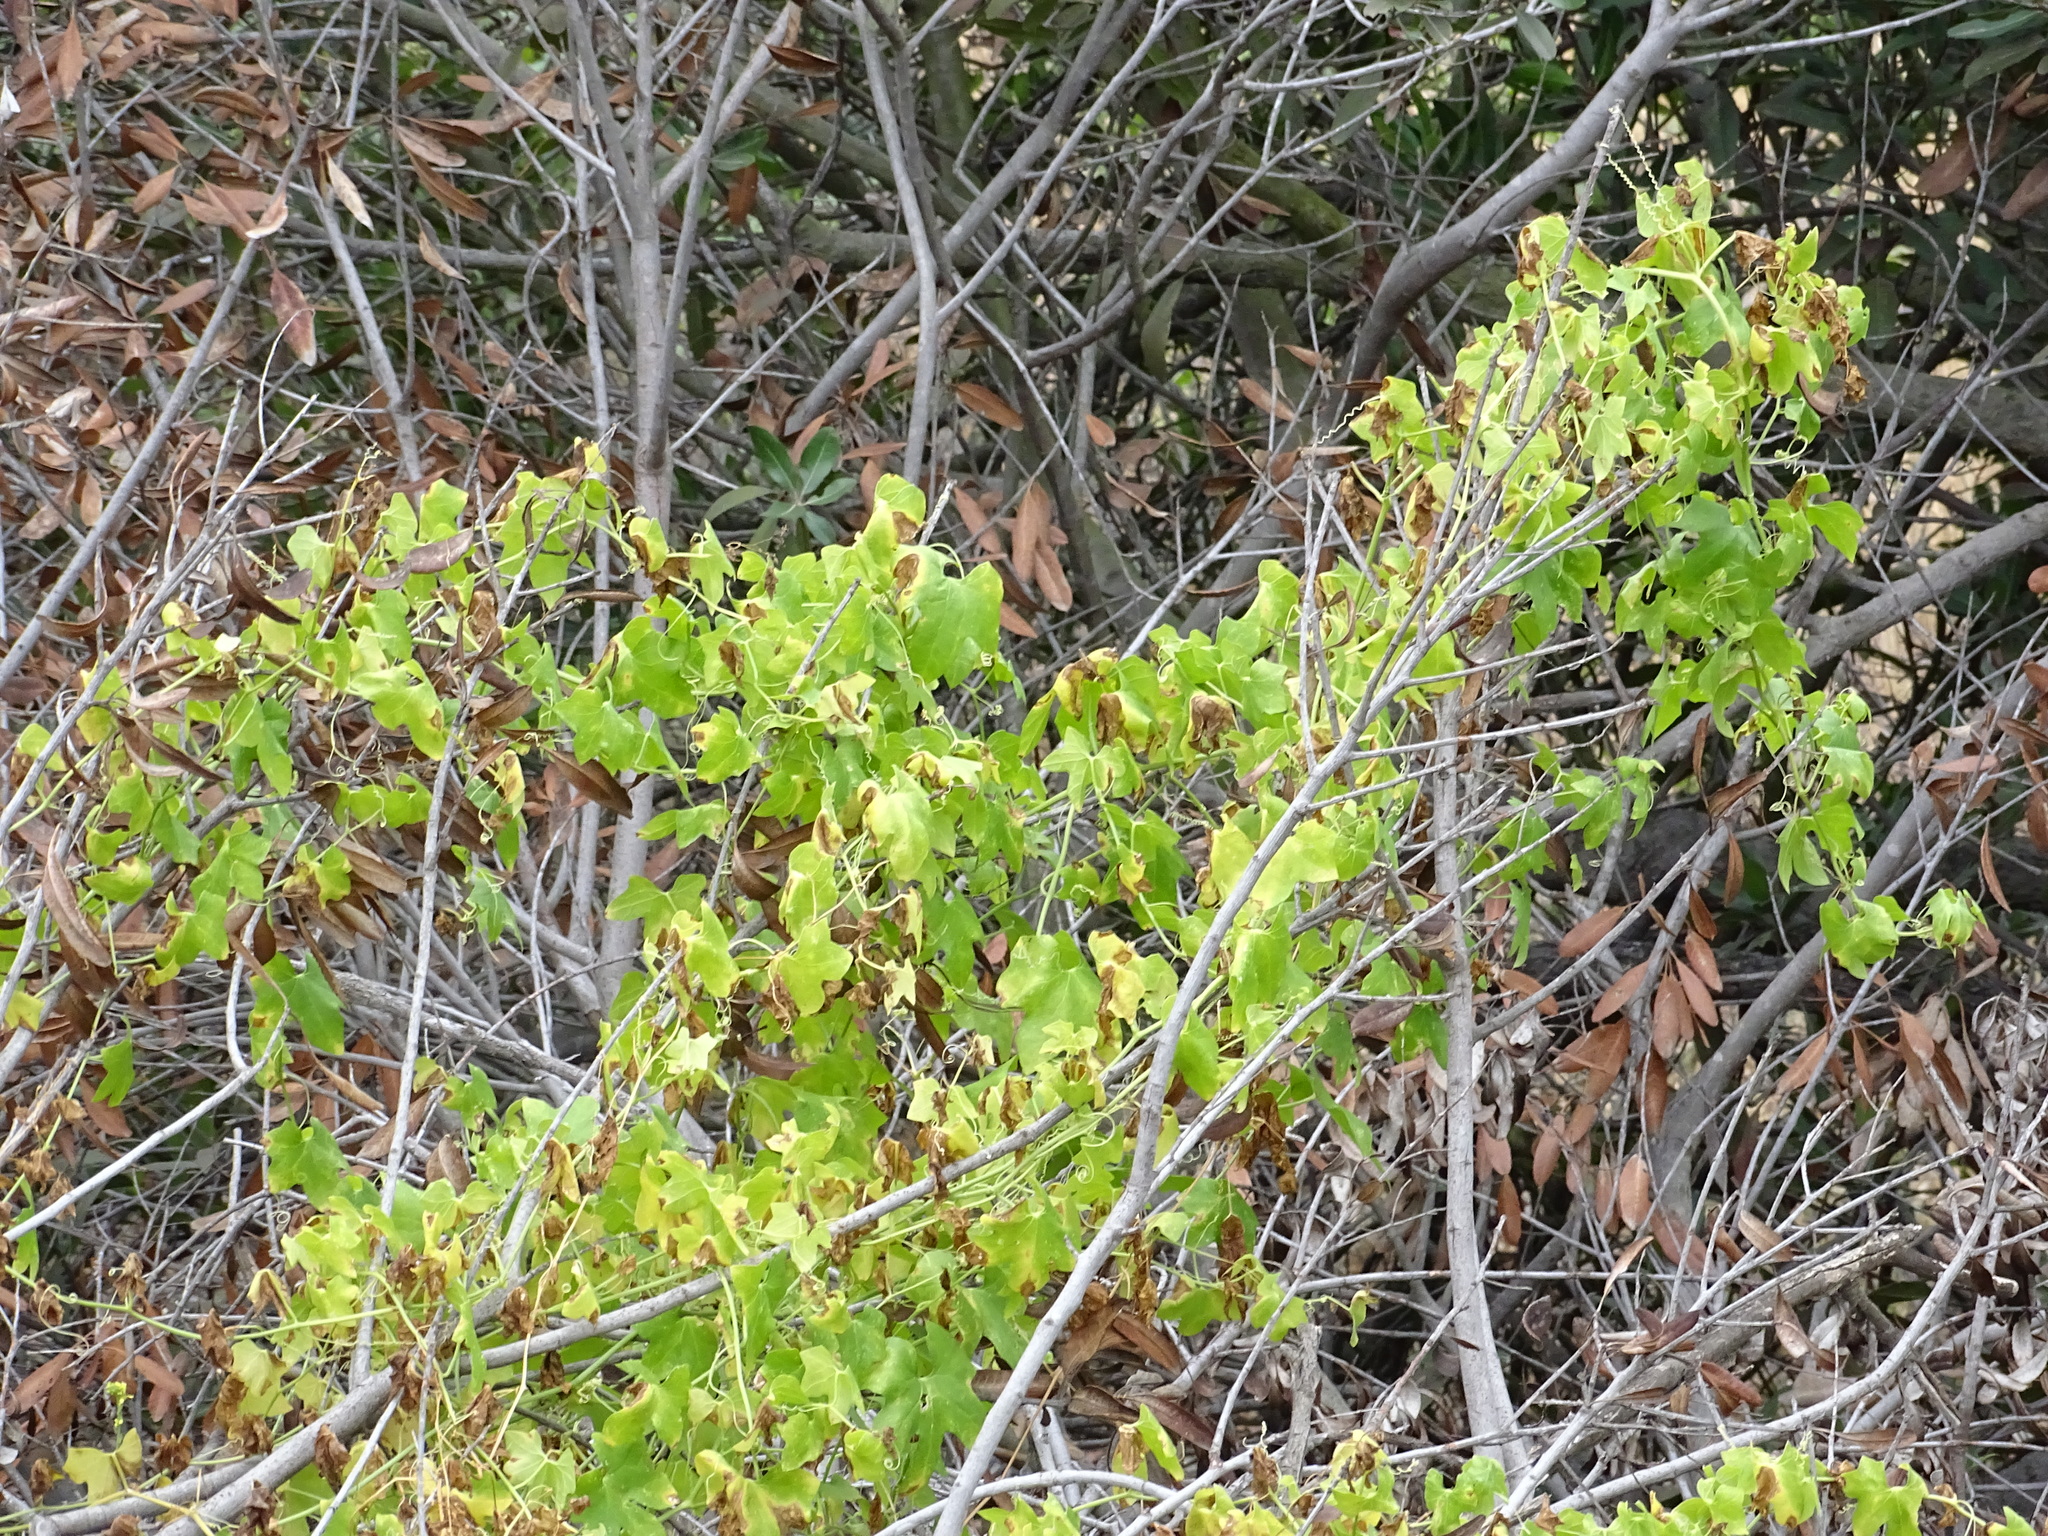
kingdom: Plantae
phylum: Tracheophyta
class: Magnoliopsida
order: Vitales
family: Vitaceae
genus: Vitis
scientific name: Vitis girdiana
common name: Desert wild grape
